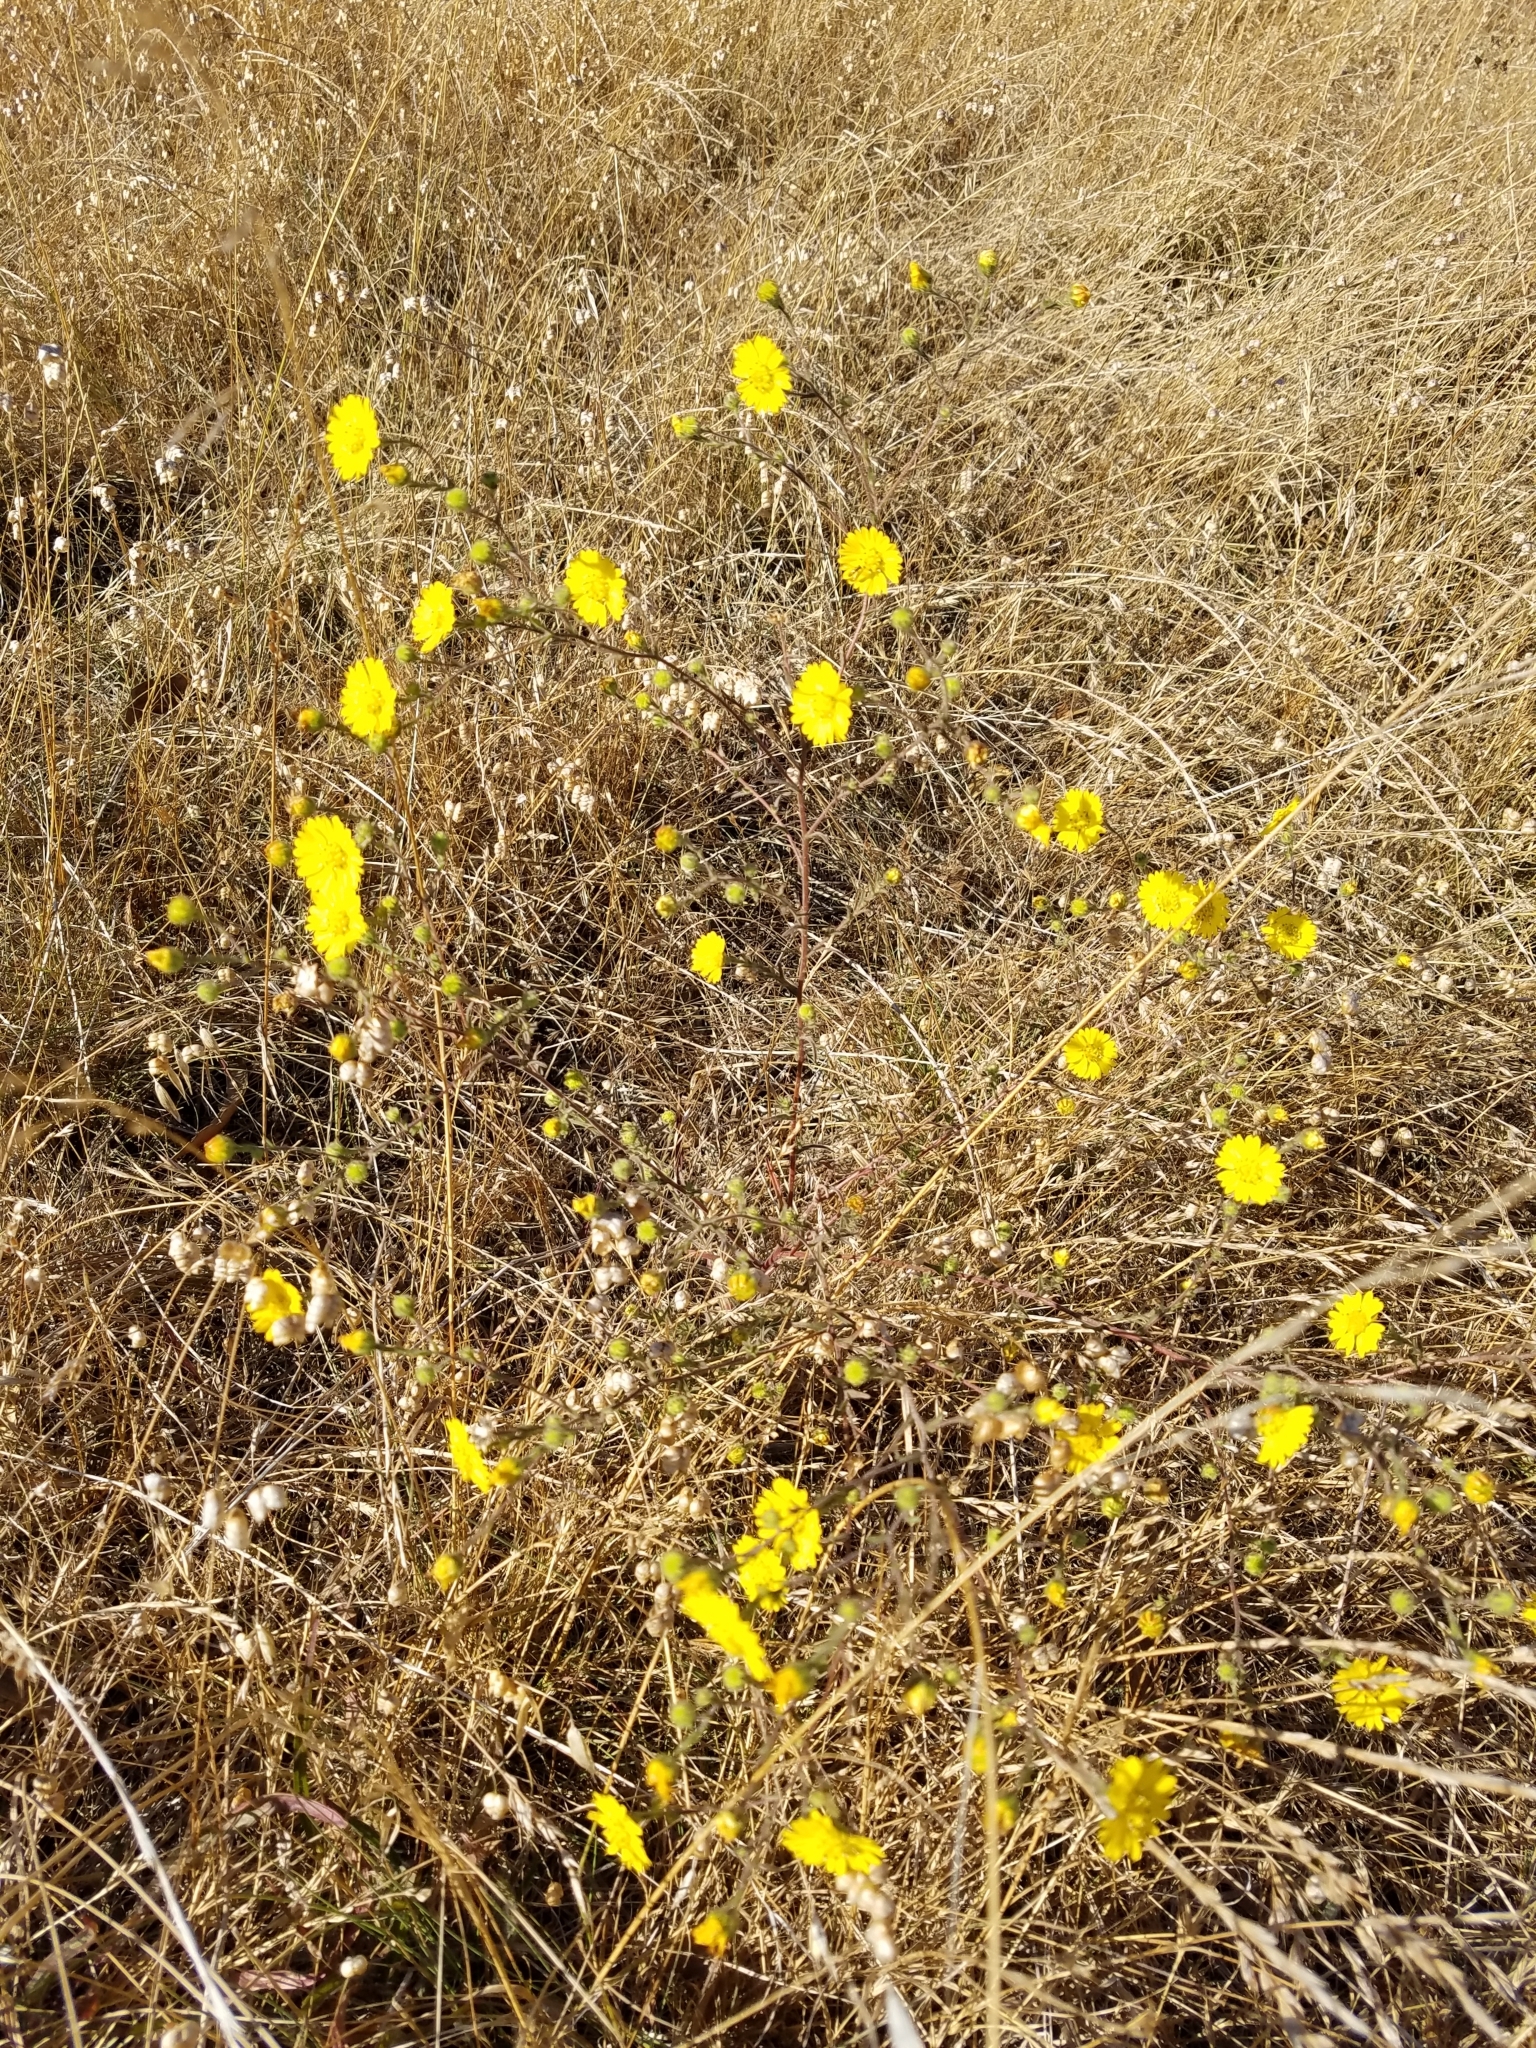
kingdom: Plantae
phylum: Tracheophyta
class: Magnoliopsida
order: Asterales
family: Asteraceae
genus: Hemizonia
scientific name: Hemizonia congesta
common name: Hayfield tarweed
